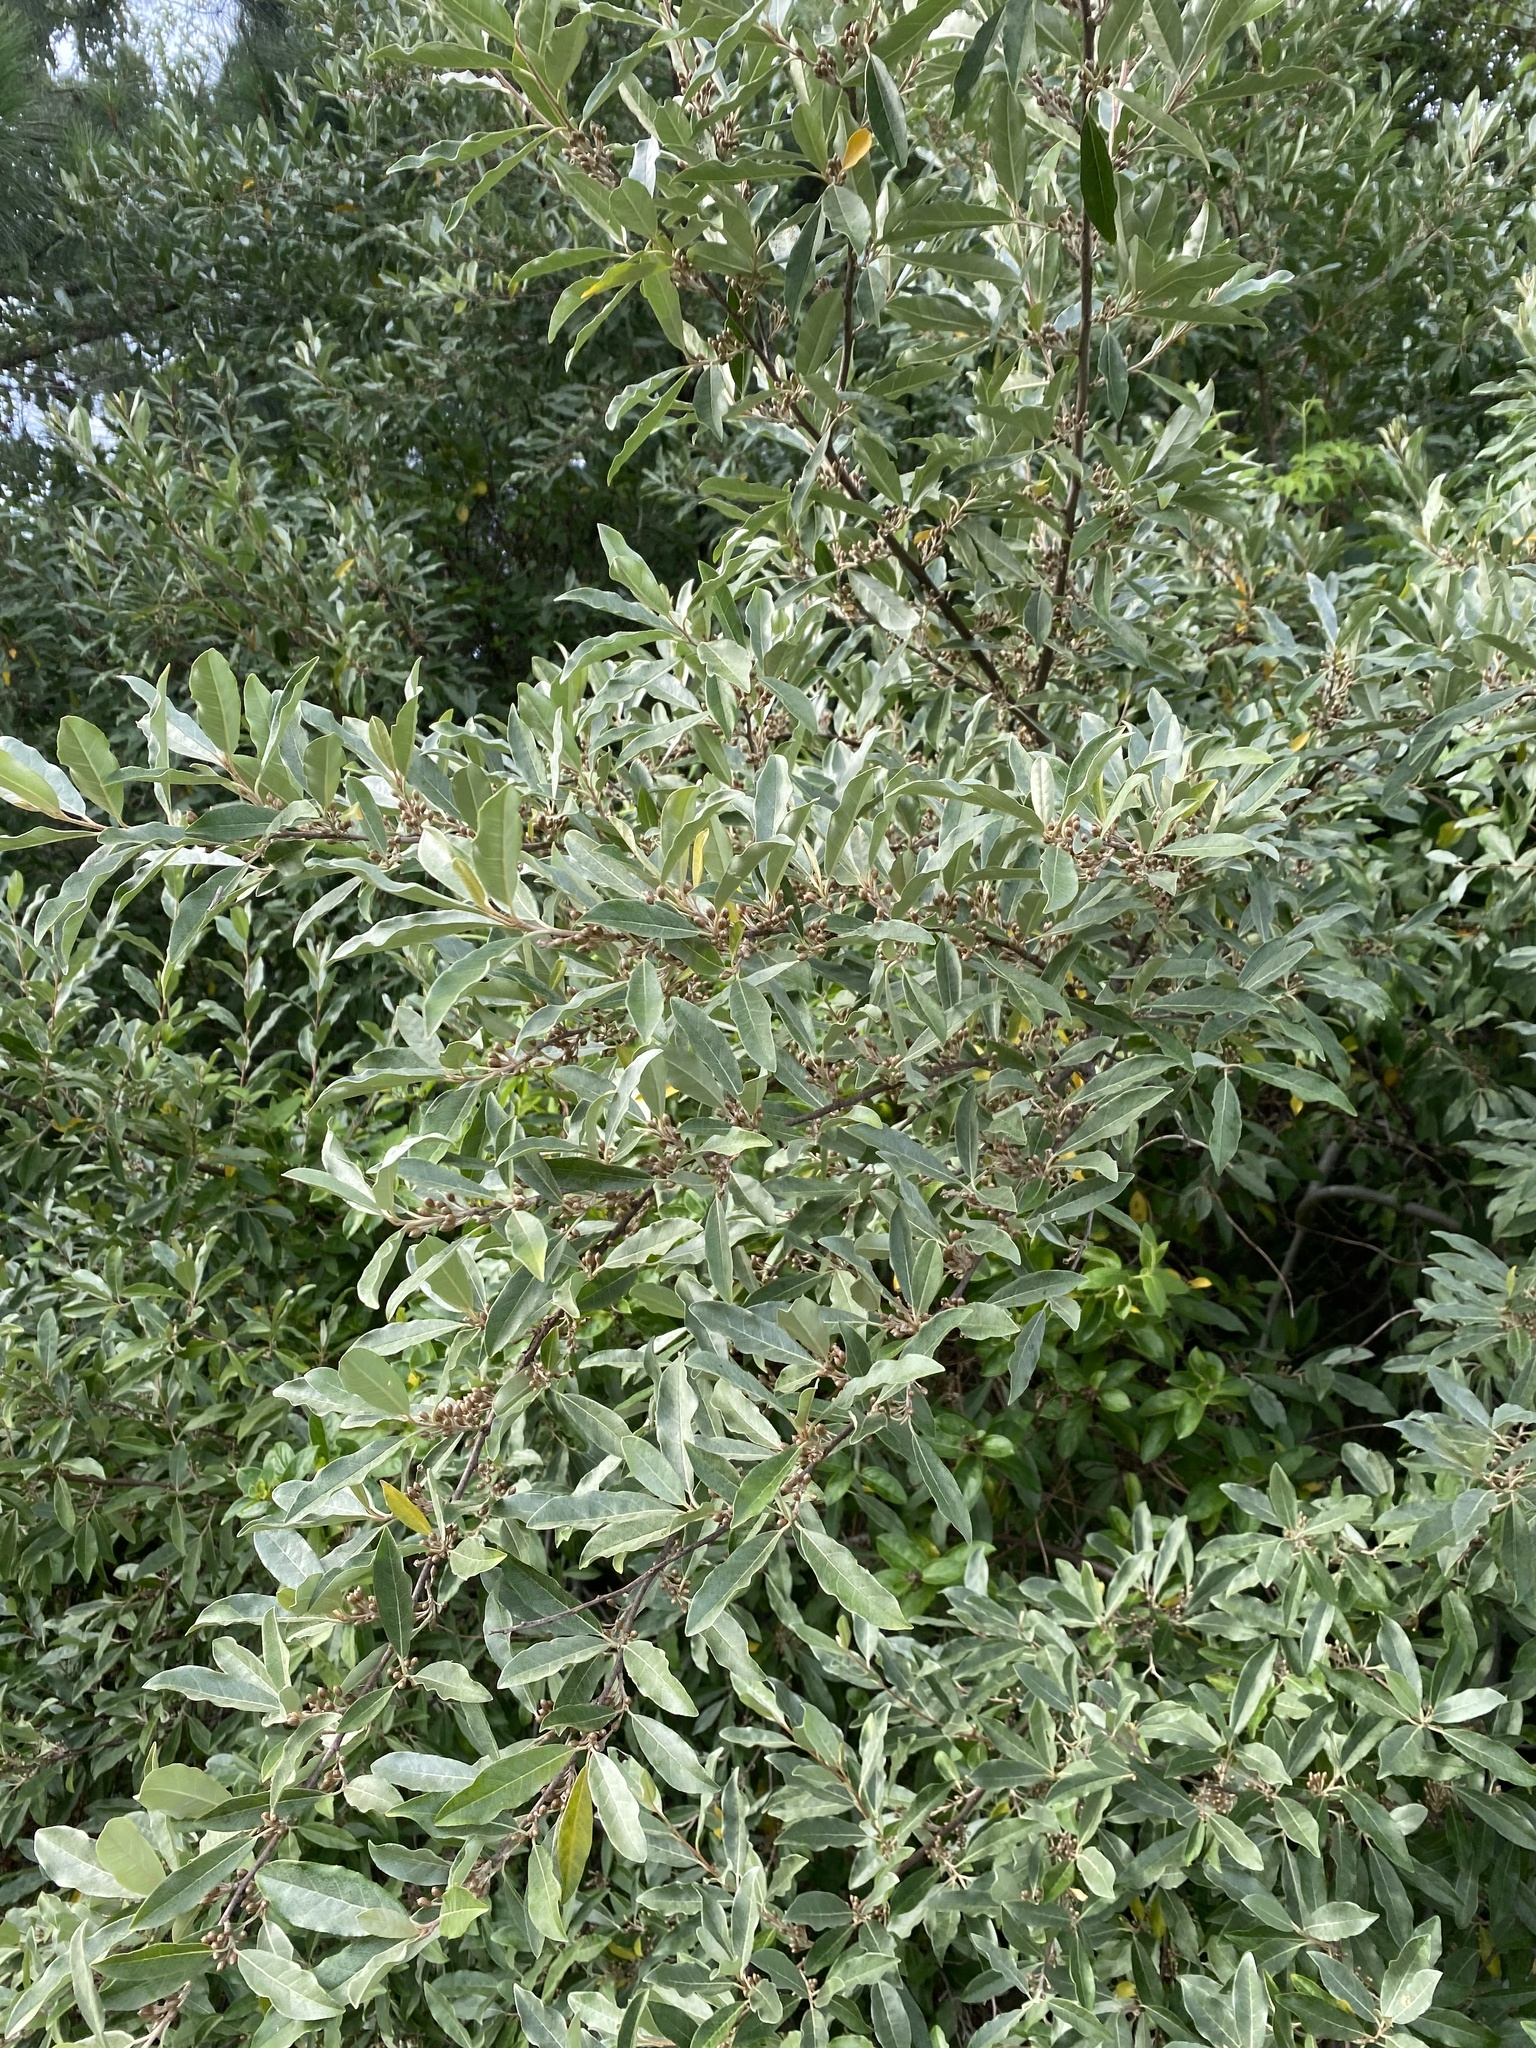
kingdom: Plantae
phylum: Tracheophyta
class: Magnoliopsida
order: Rosales
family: Elaeagnaceae
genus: Elaeagnus
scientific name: Elaeagnus umbellata
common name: Autumn olive
